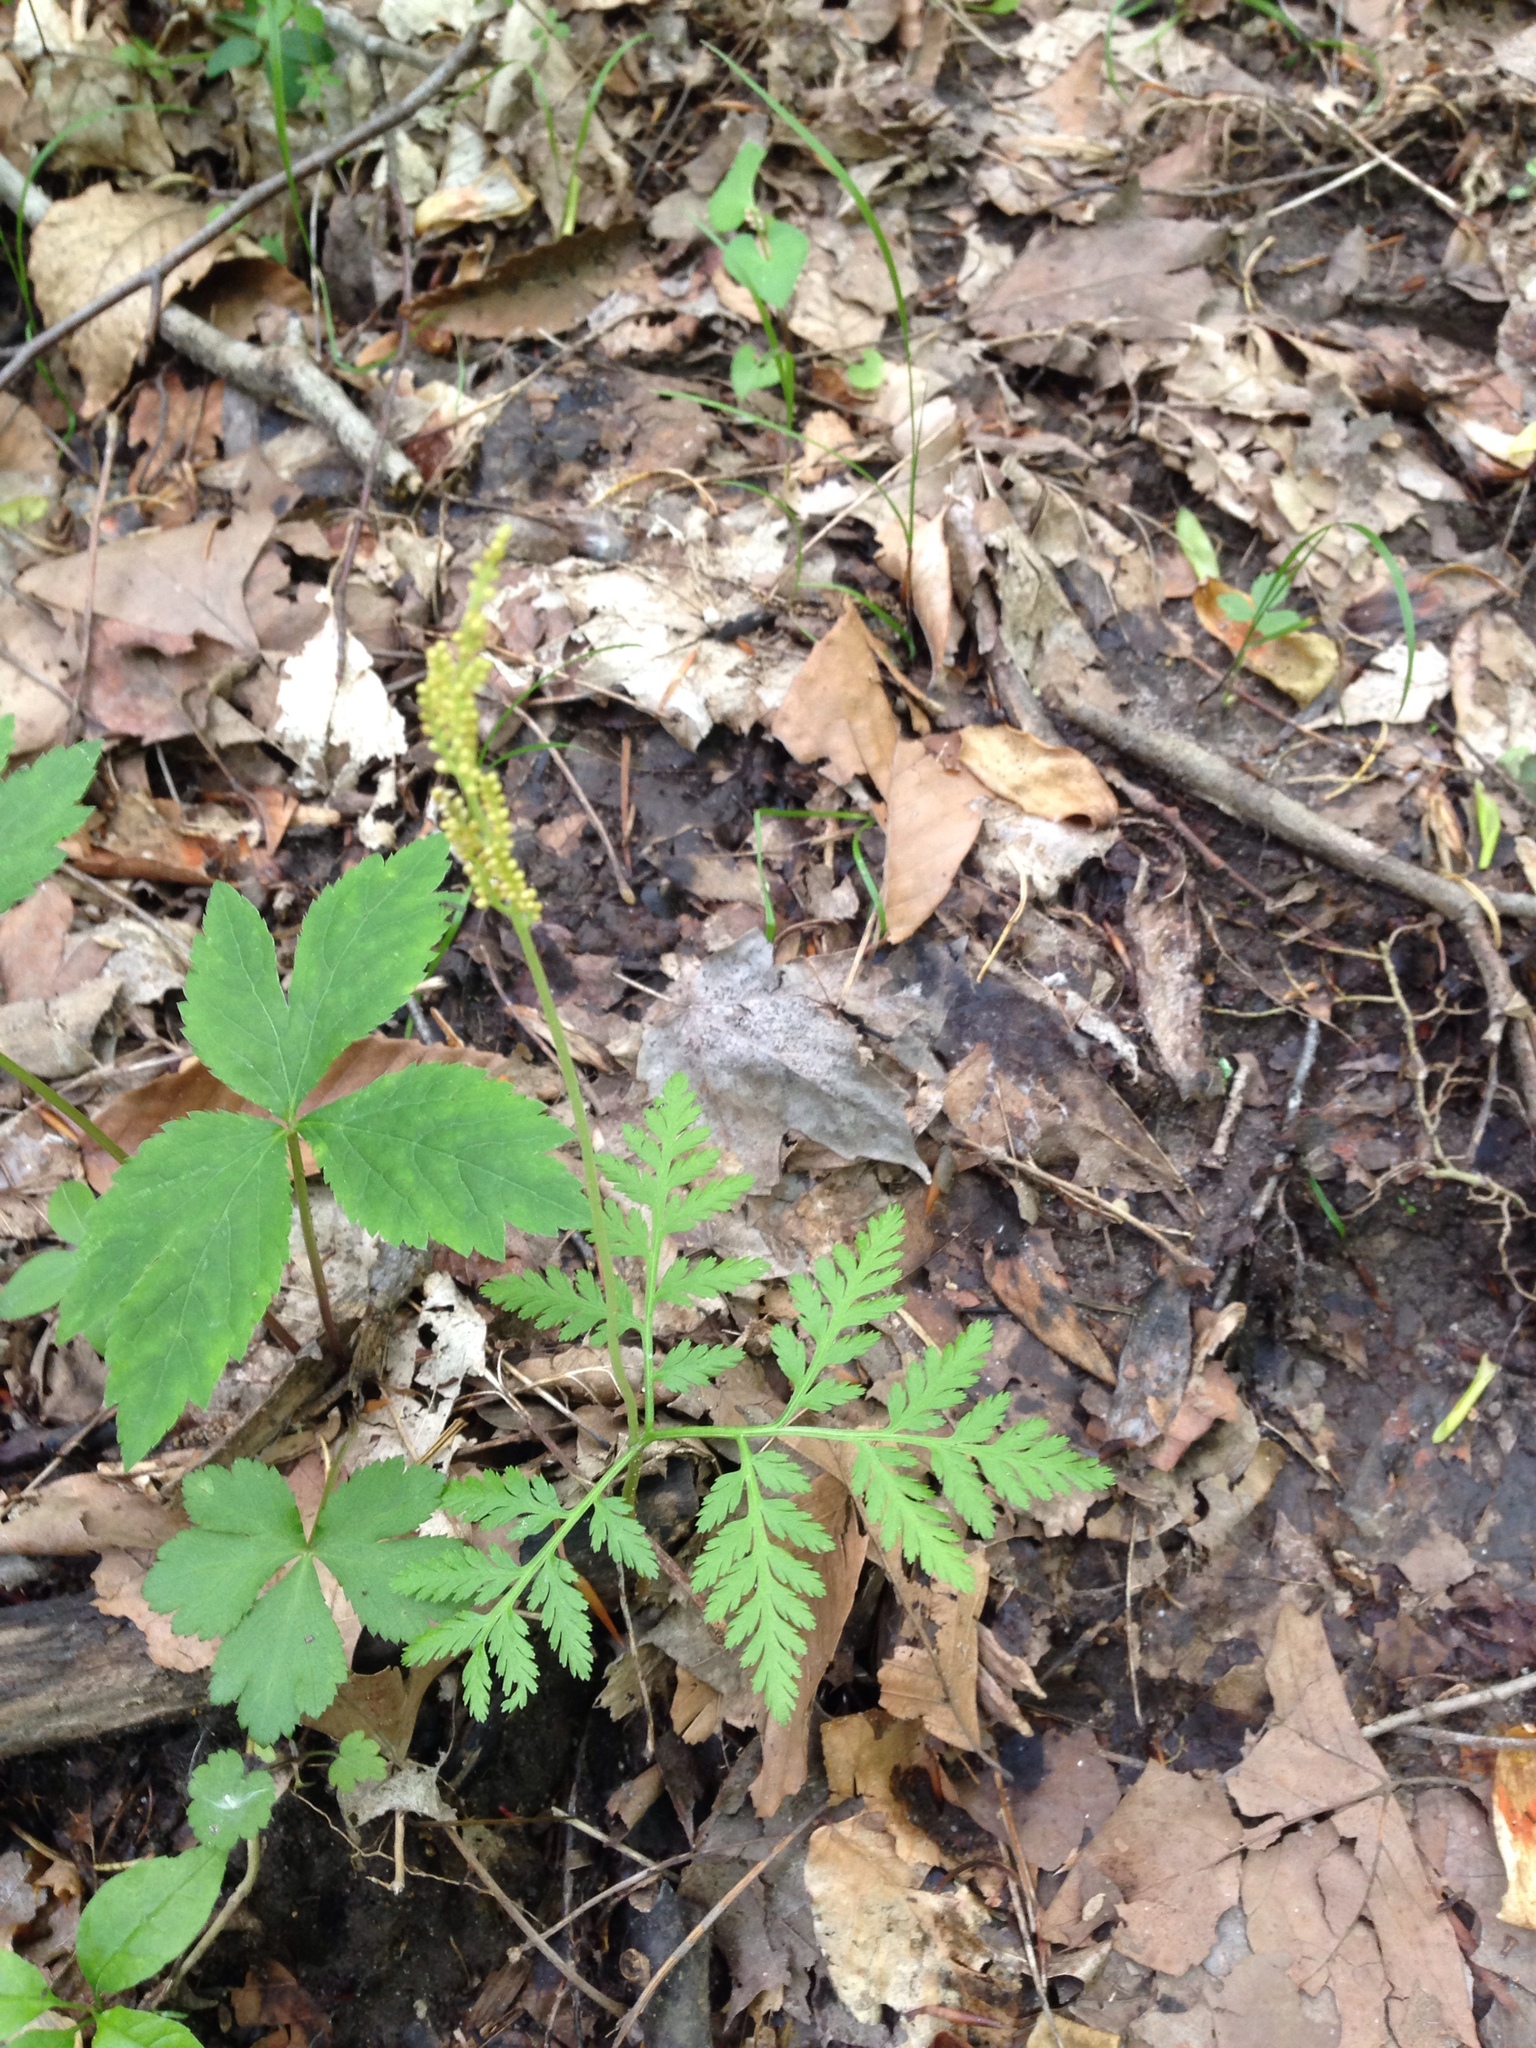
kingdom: Plantae
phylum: Tracheophyta
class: Polypodiopsida
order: Ophioglossales
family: Ophioglossaceae
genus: Botrypus
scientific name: Botrypus virginianus
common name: Common grapefern
